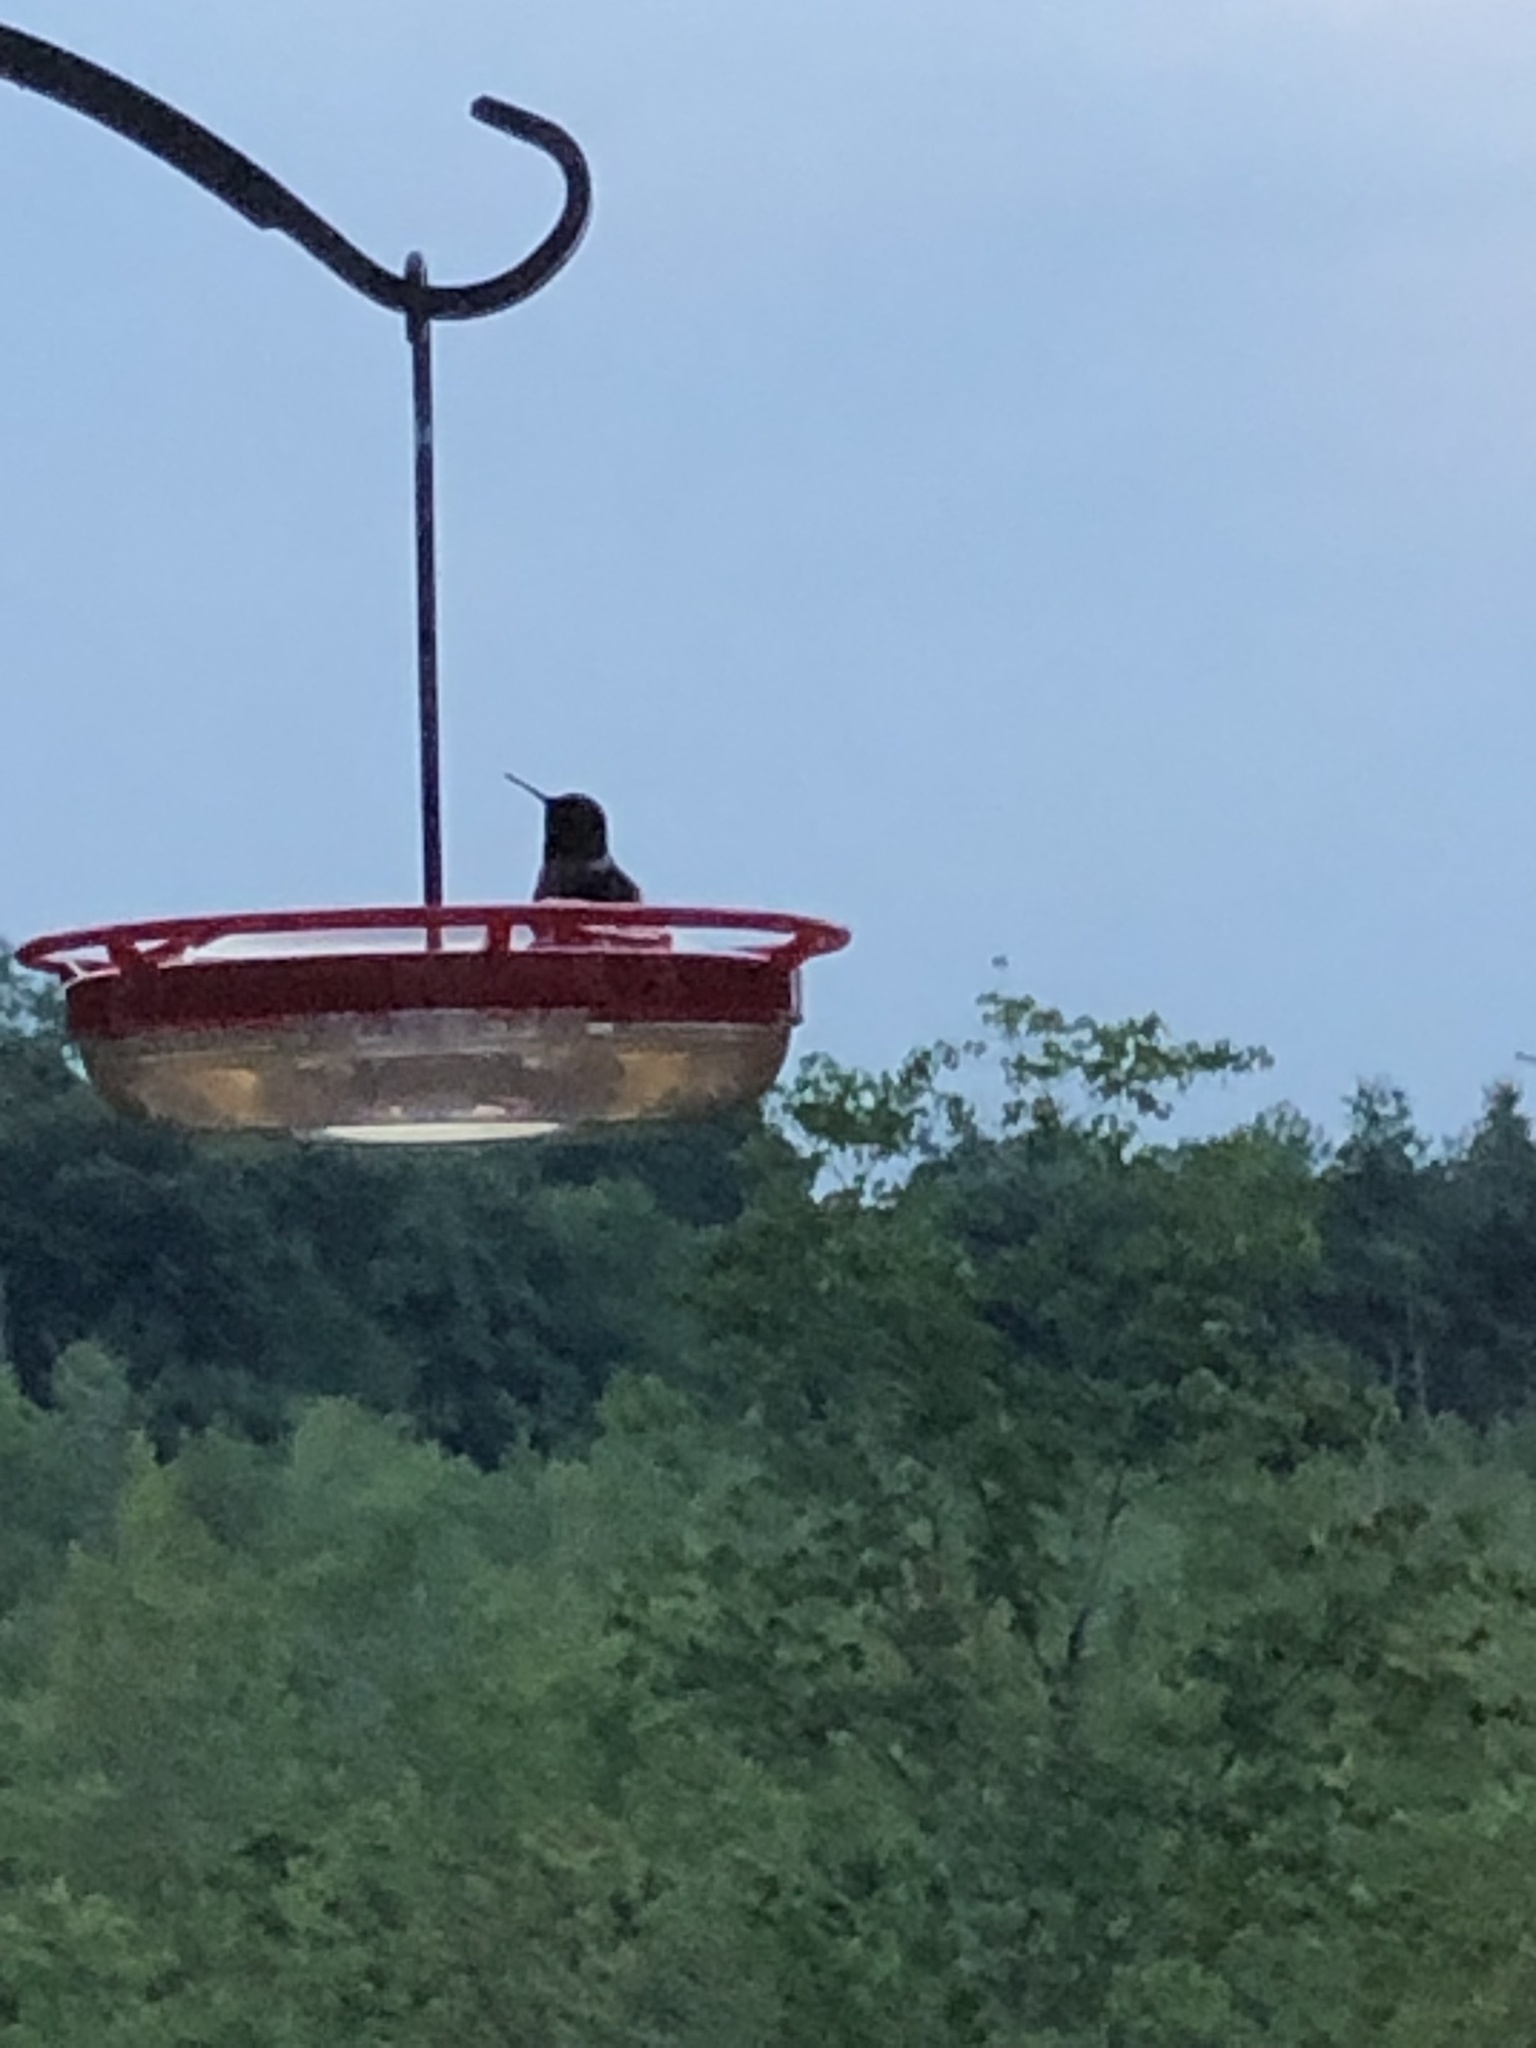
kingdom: Animalia
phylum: Chordata
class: Aves
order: Apodiformes
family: Trochilidae
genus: Archilochus
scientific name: Archilochus colubris
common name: Ruby-throated hummingbird
